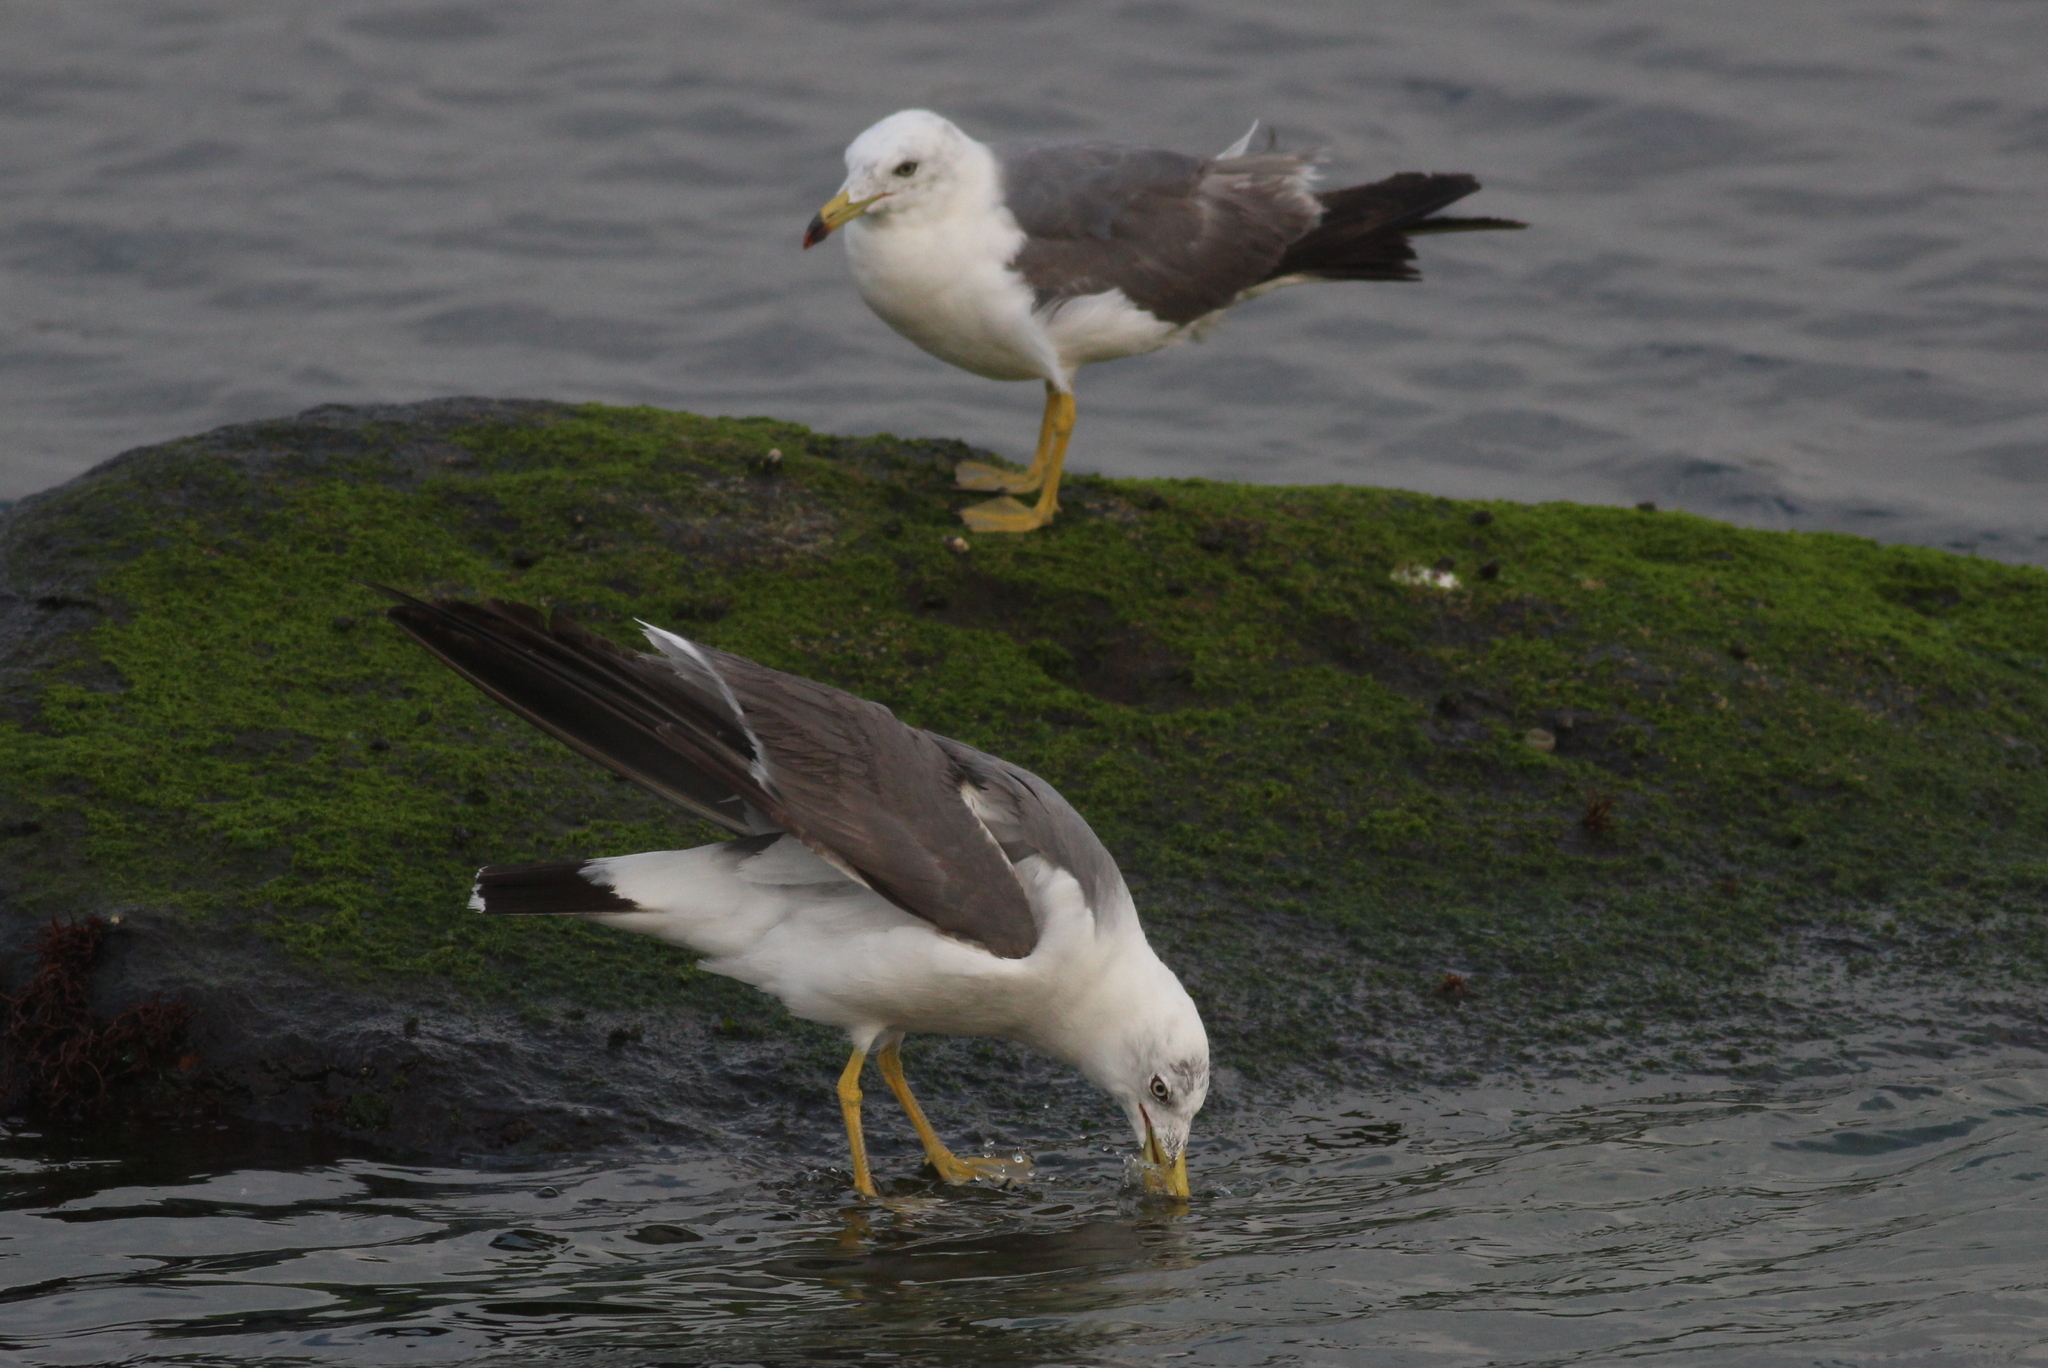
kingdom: Animalia
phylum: Chordata
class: Aves
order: Charadriiformes
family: Laridae
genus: Larus
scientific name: Larus crassirostris
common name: Black-tailed gull
